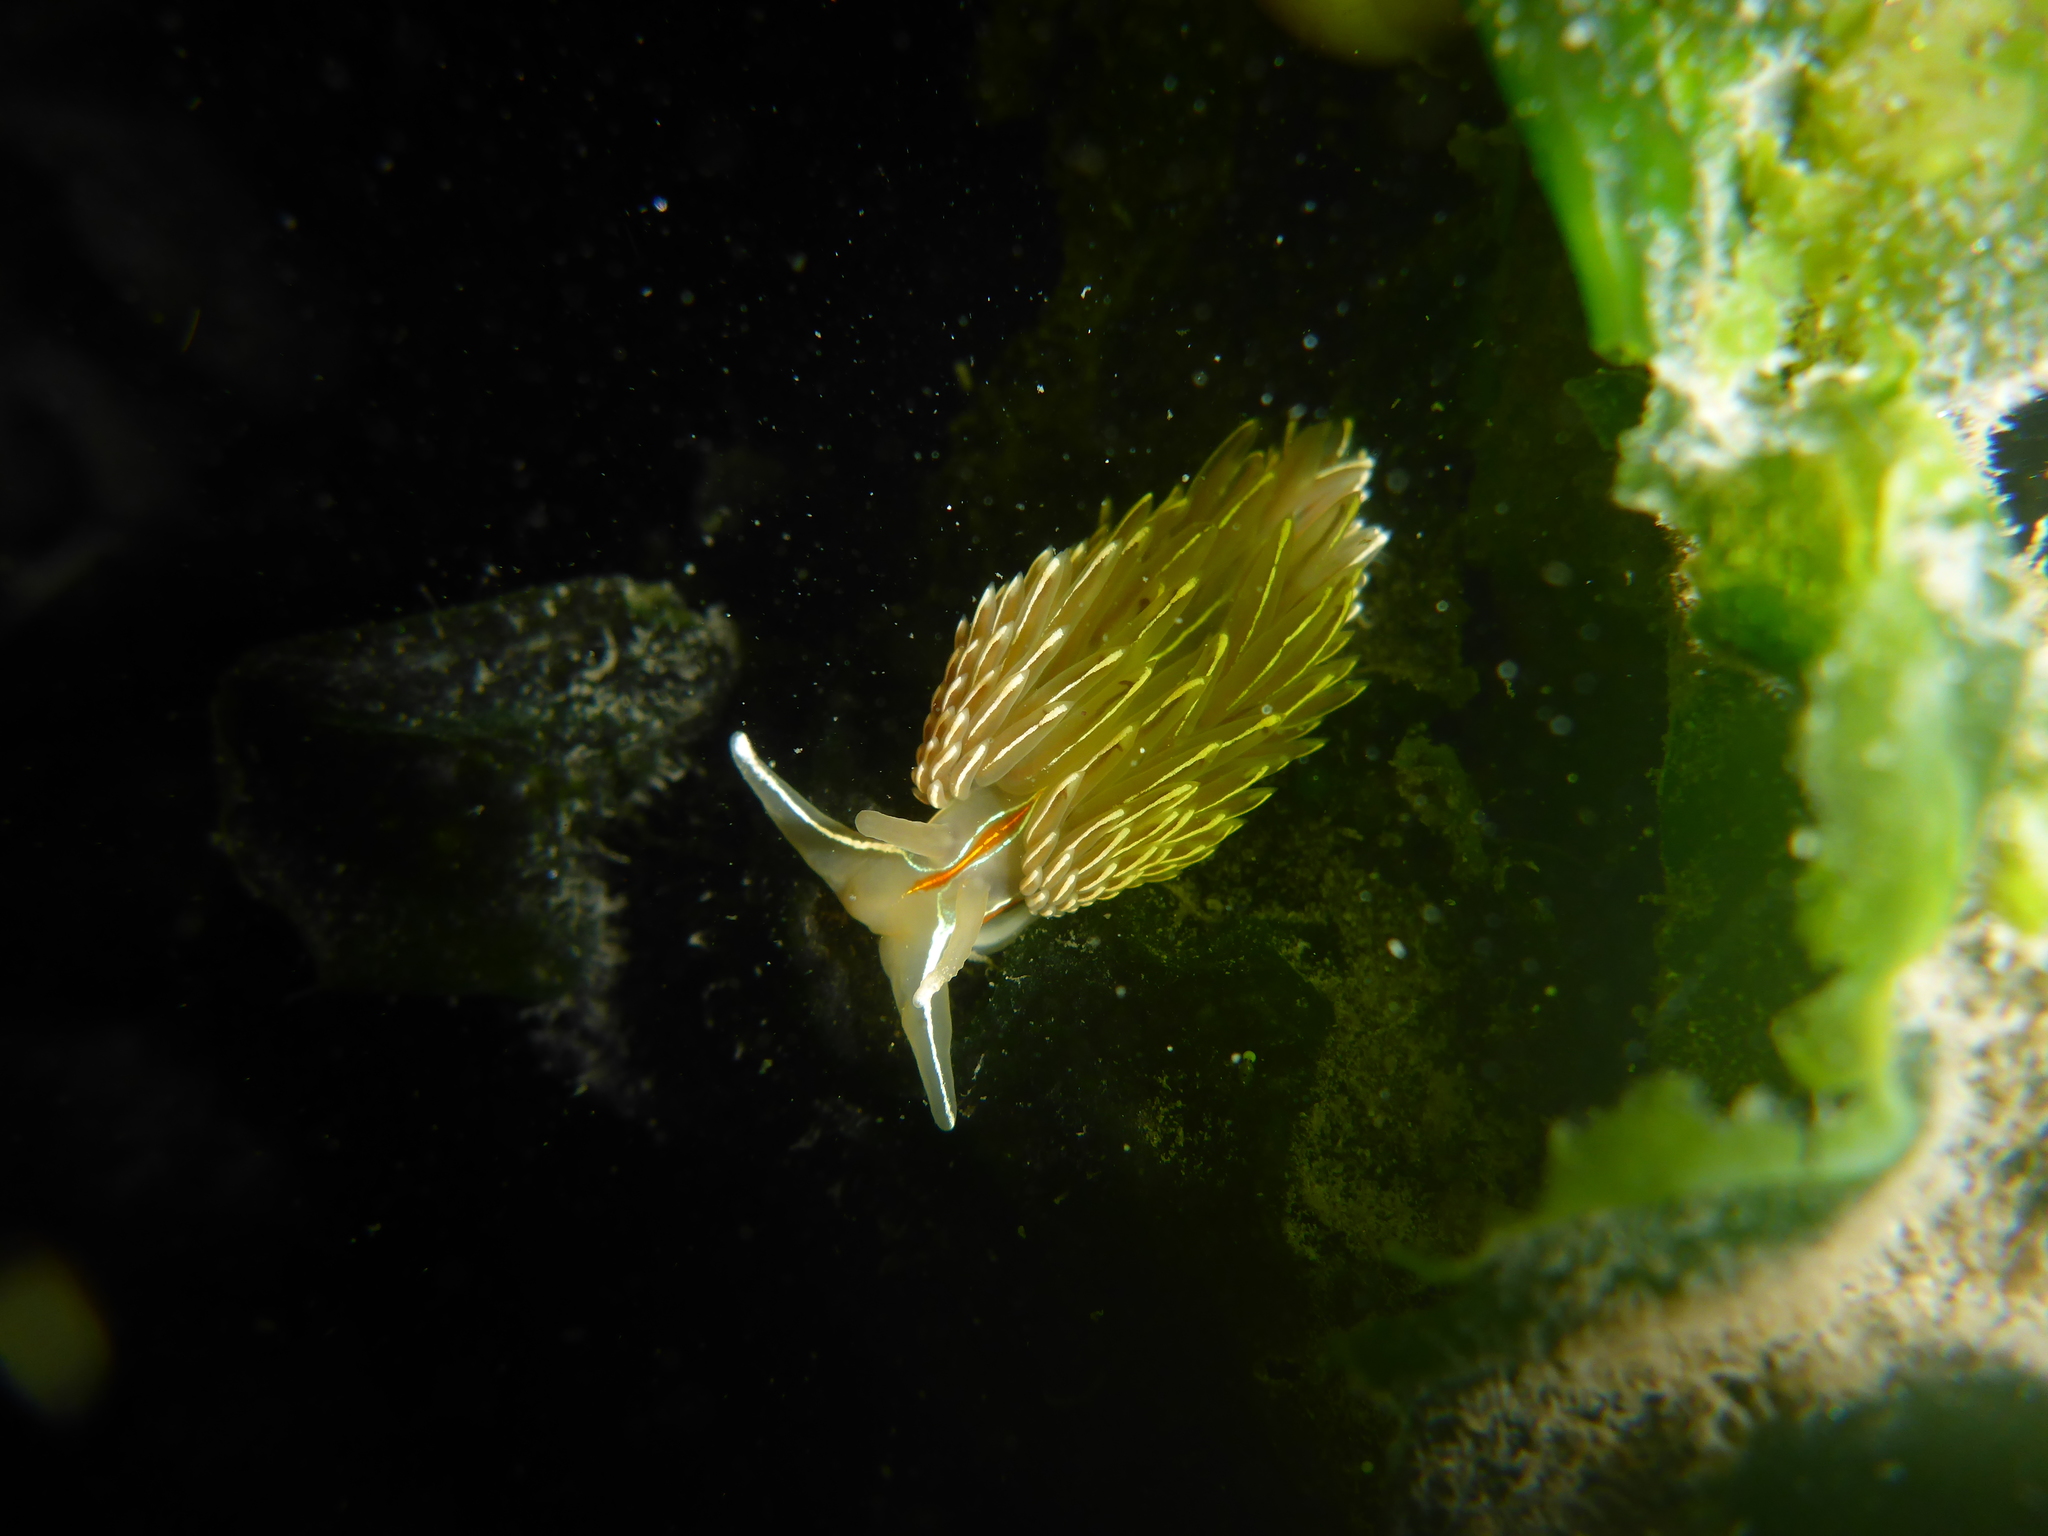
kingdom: Animalia
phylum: Mollusca
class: Gastropoda
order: Nudibranchia
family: Myrrhinidae
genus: Hermissenda
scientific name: Hermissenda crassicornis
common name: Hermissenda
